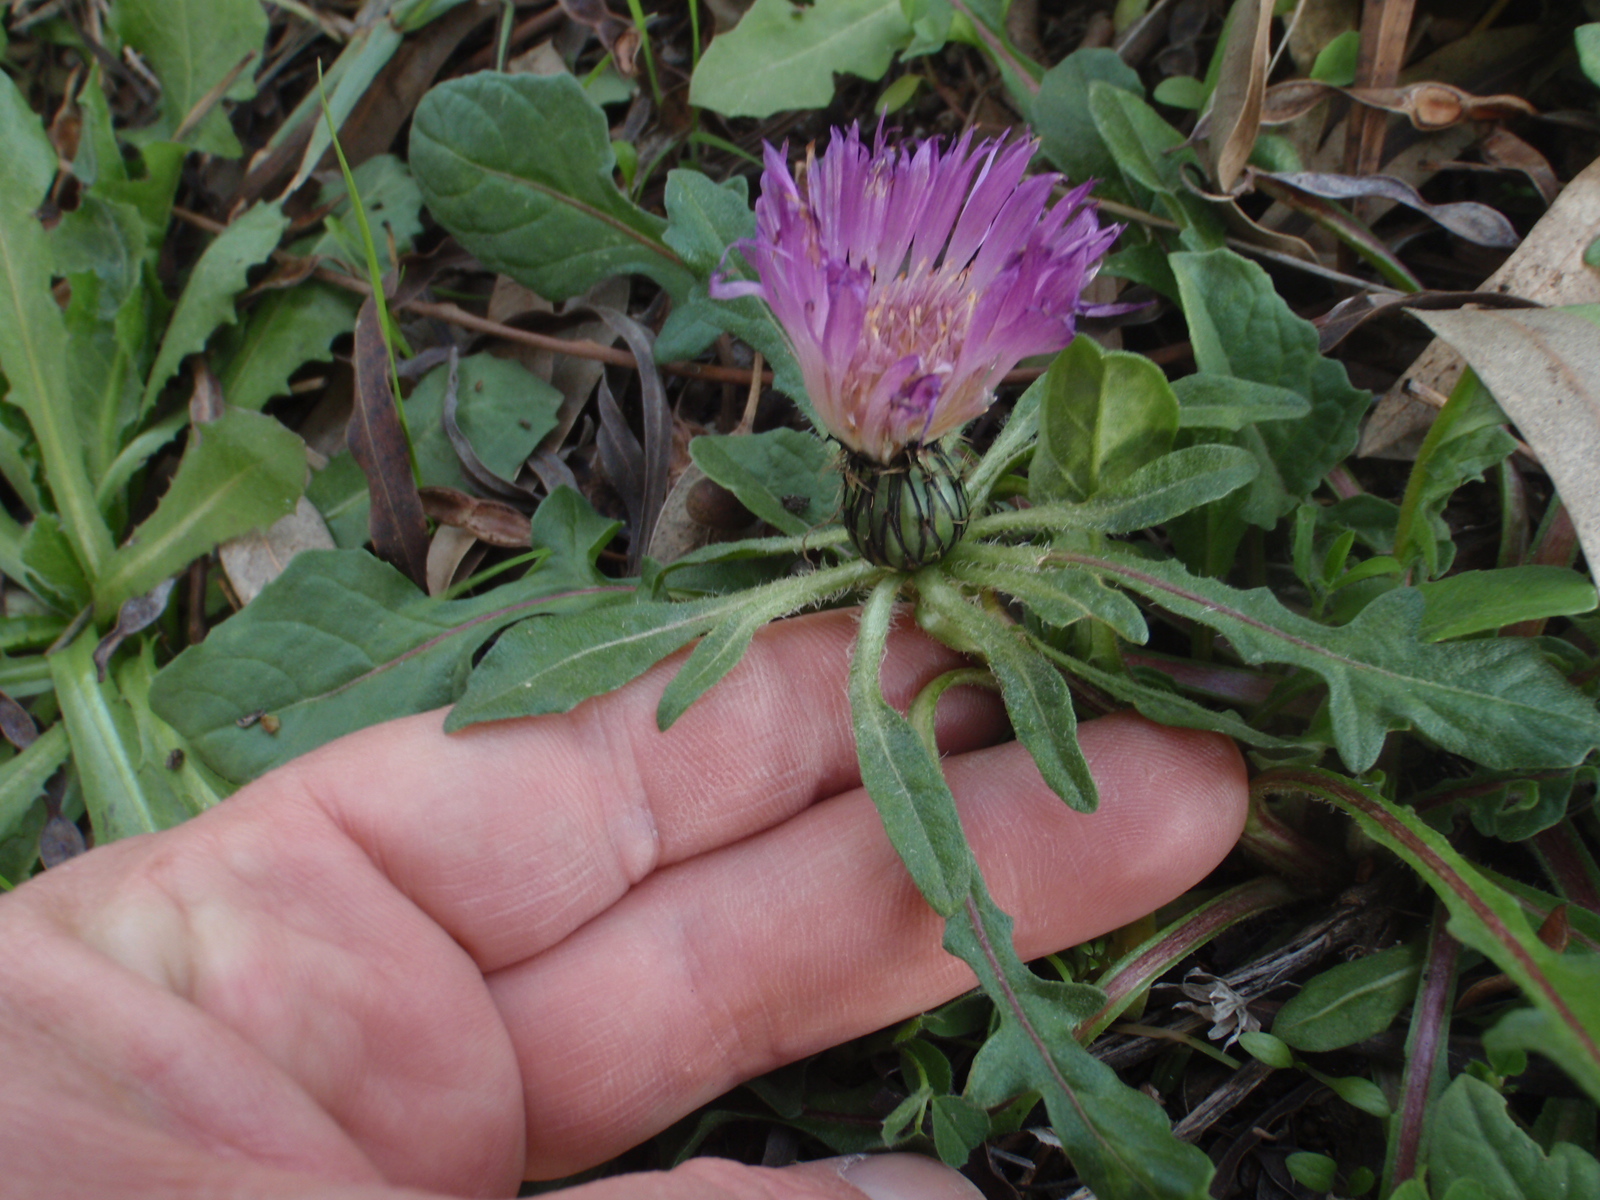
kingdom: Plantae
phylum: Tracheophyta
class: Magnoliopsida
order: Asterales
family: Asteraceae
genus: Centaurea
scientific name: Centaurea pullata
